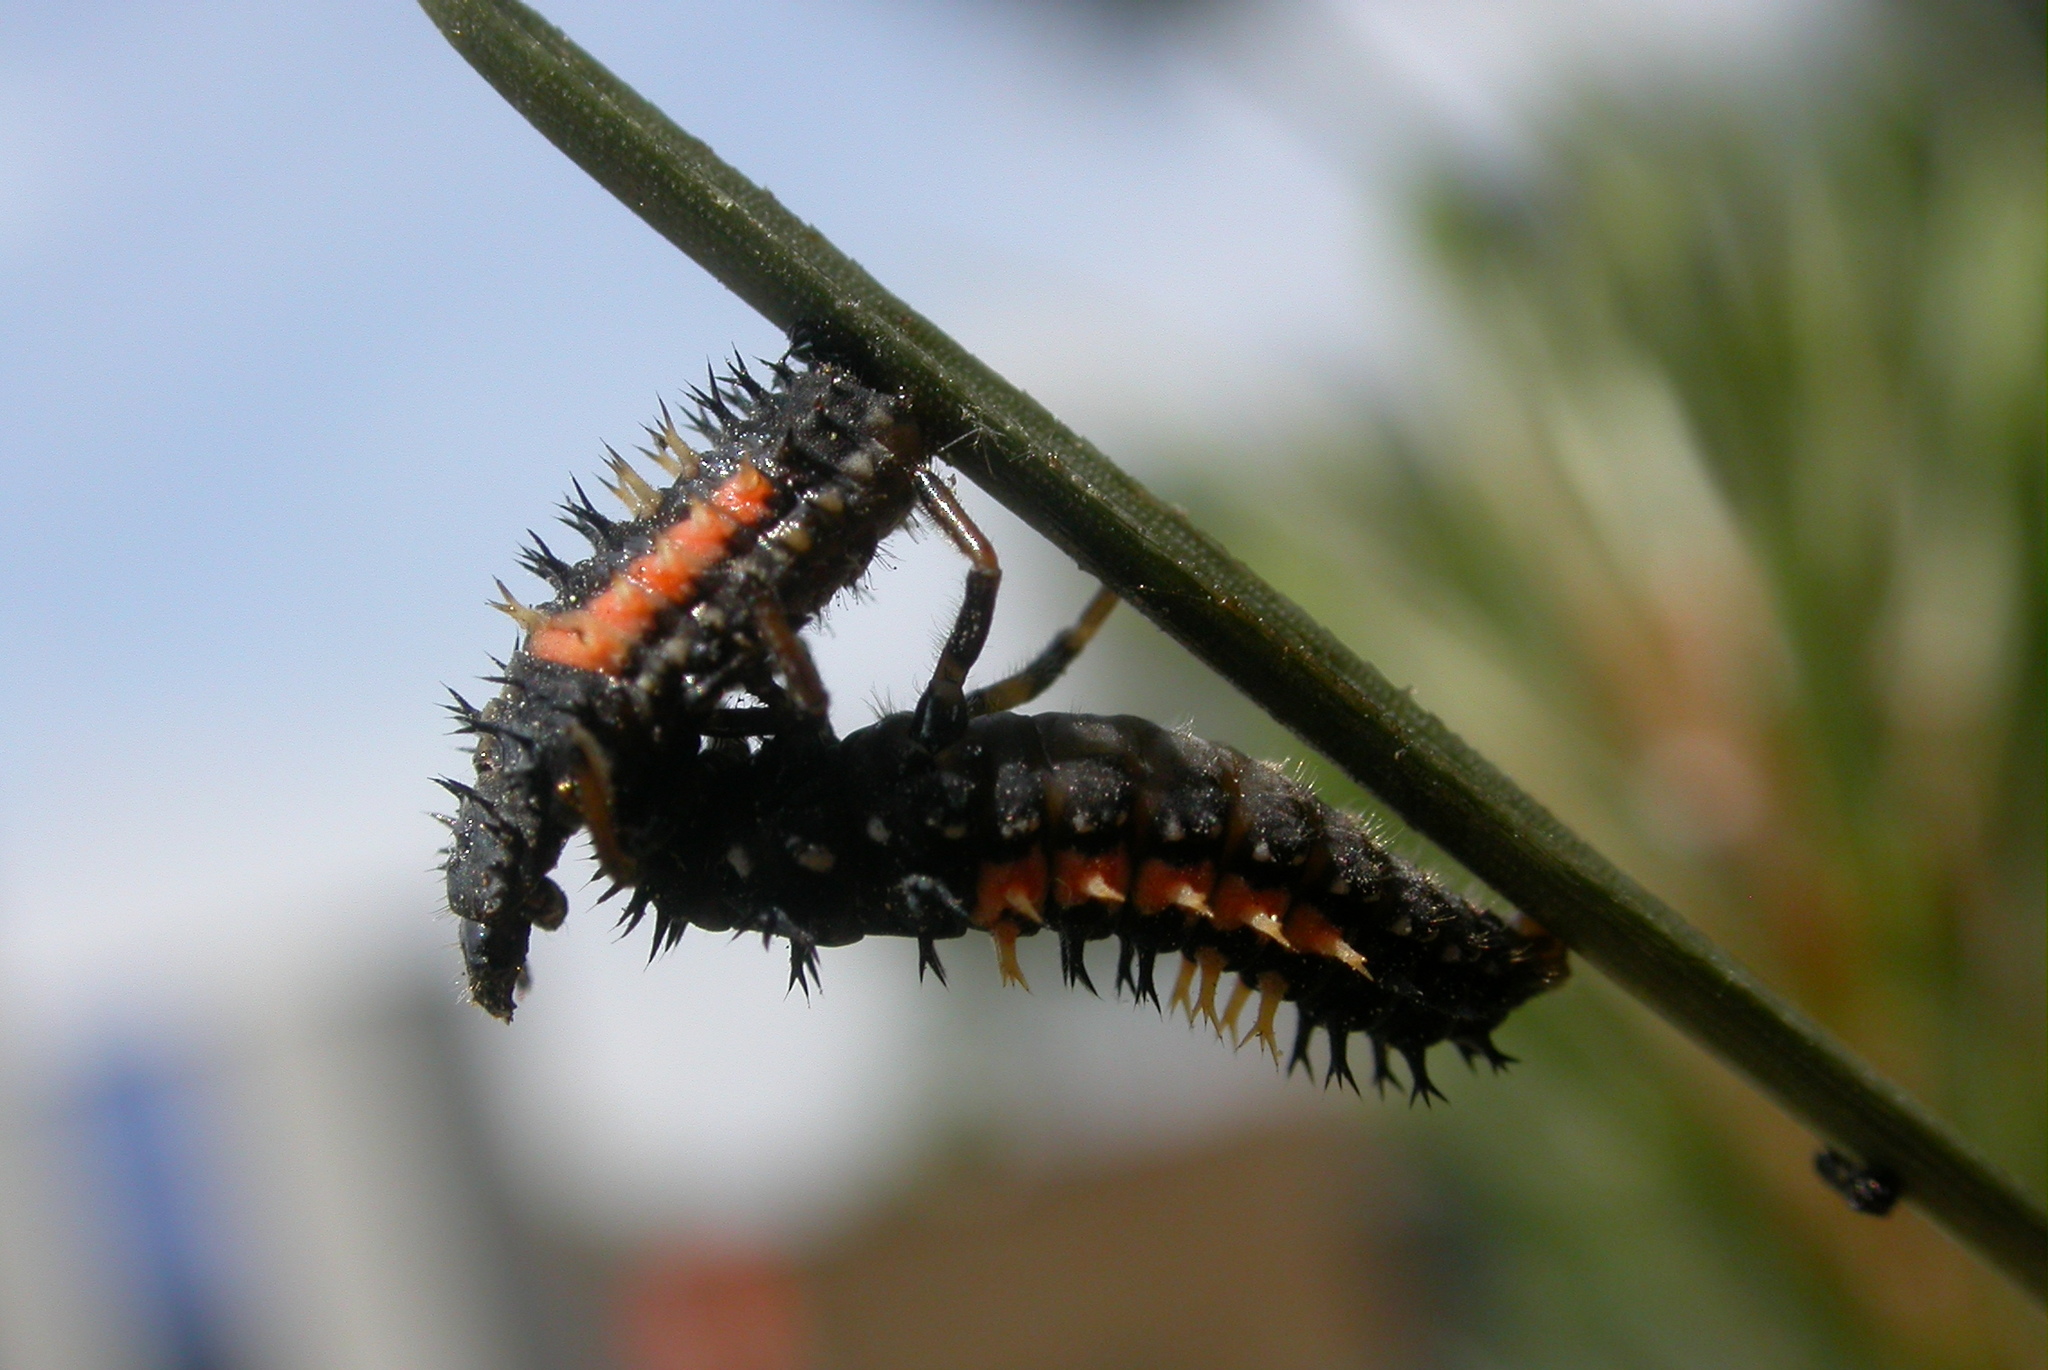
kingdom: Animalia
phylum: Arthropoda
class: Insecta
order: Coleoptera
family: Coccinellidae
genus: Harmonia
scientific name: Harmonia axyridis
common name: Harlequin ladybird
